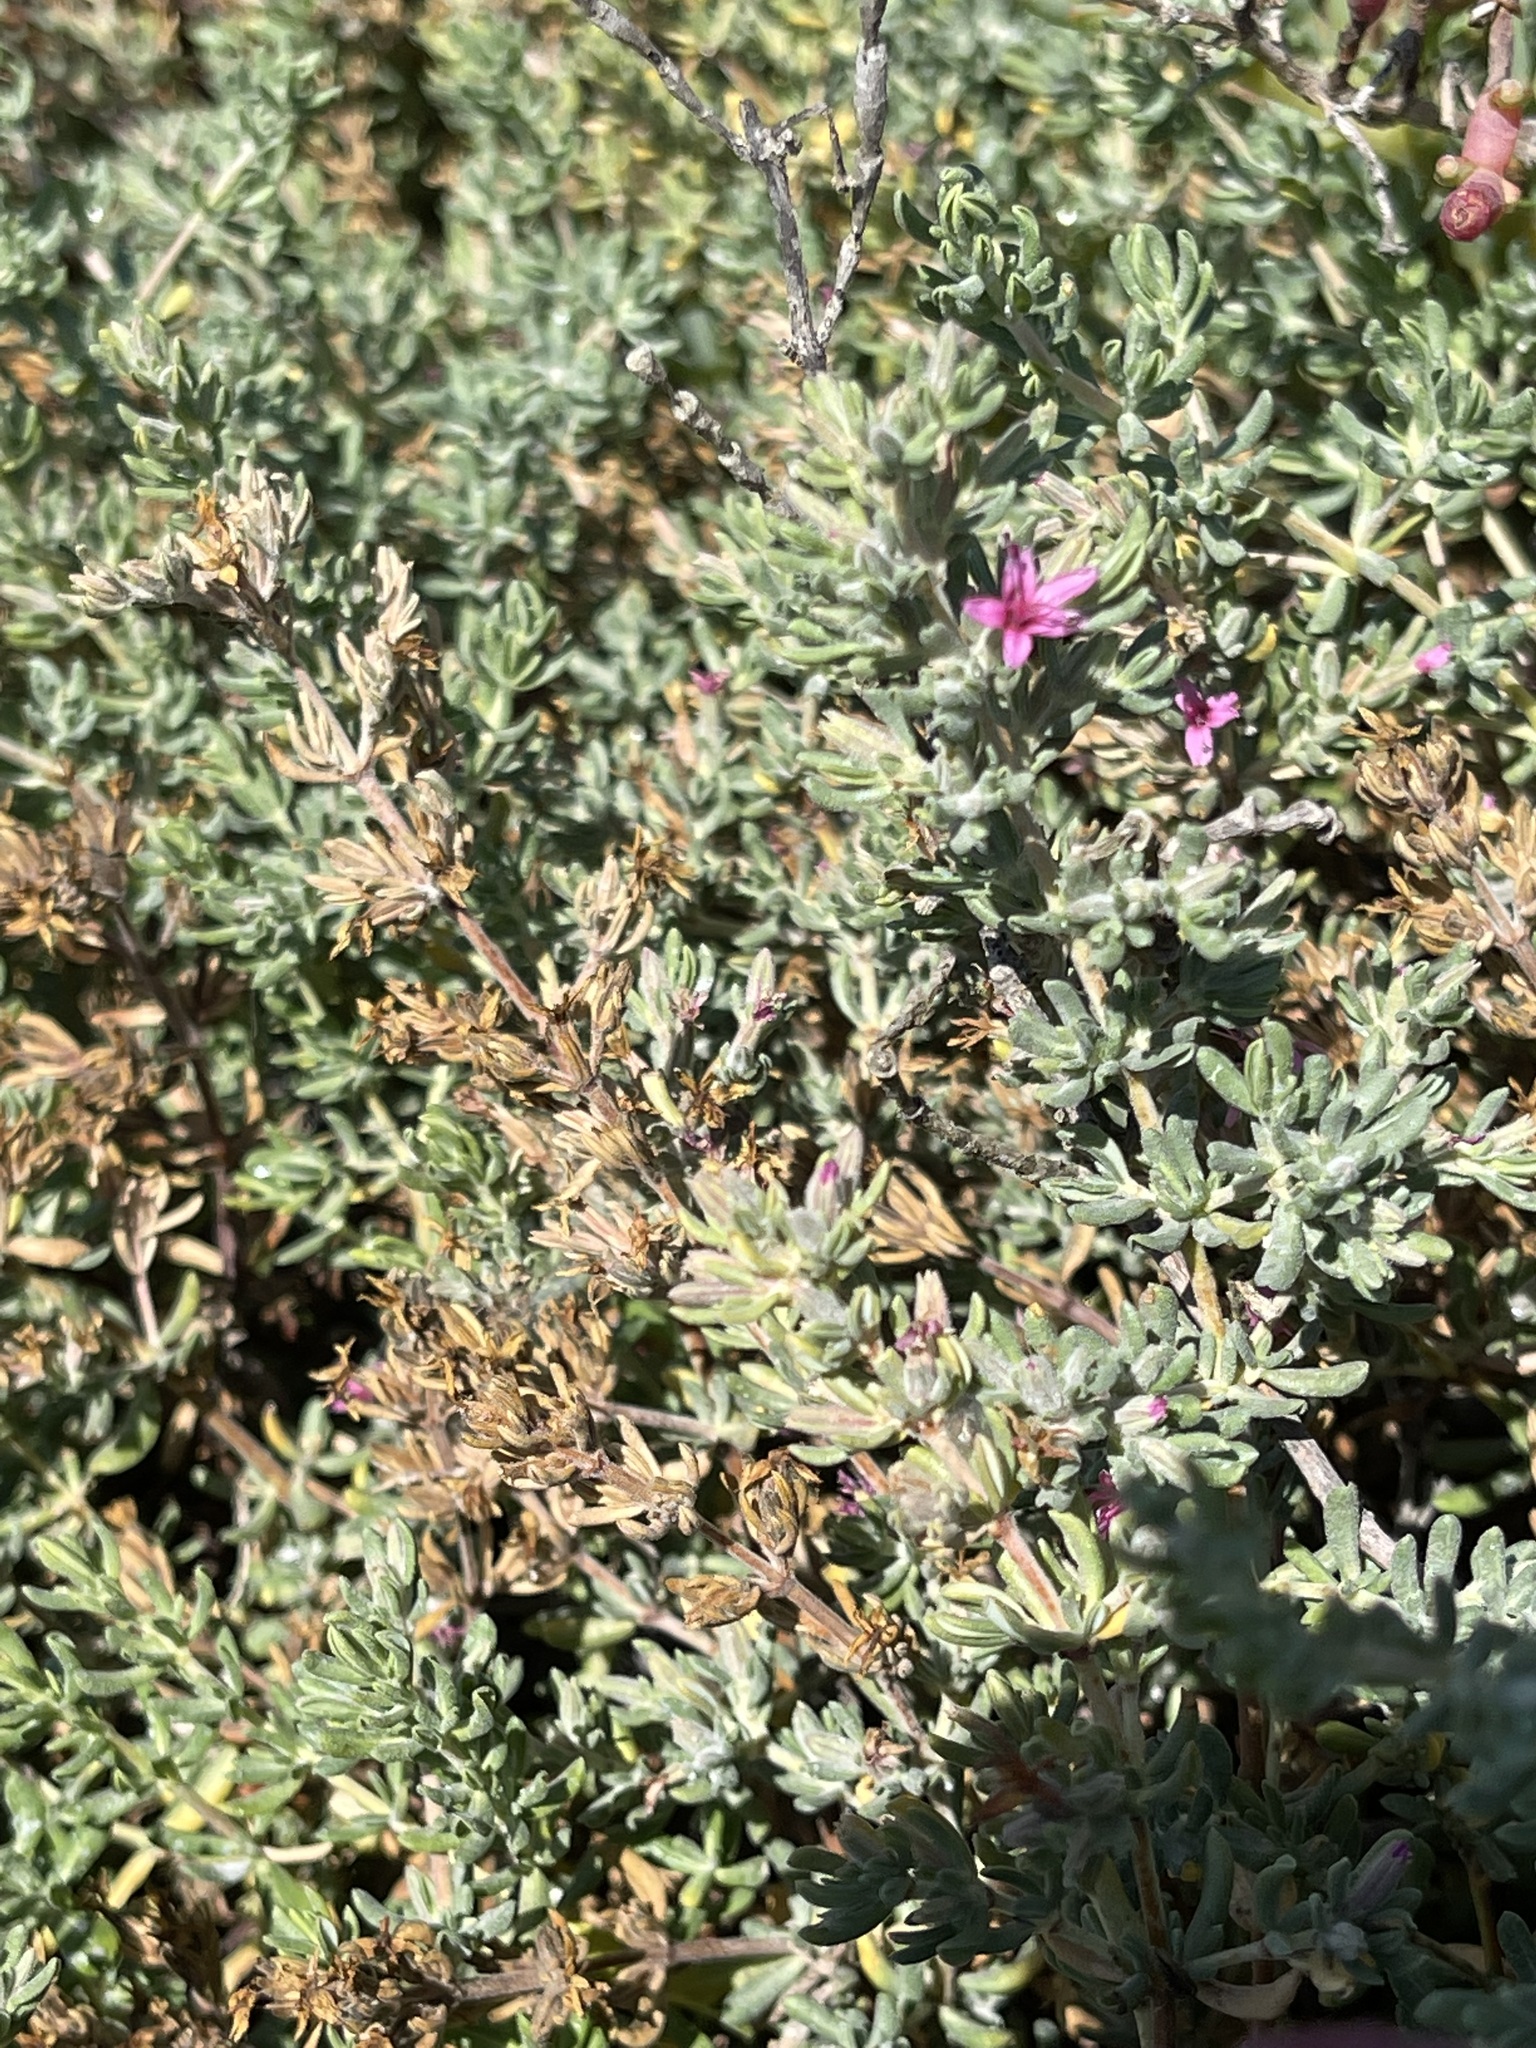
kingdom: Plantae
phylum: Tracheophyta
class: Magnoliopsida
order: Caryophyllales
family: Frankeniaceae
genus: Frankenia
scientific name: Frankenia salina
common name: Alkali seaheath
